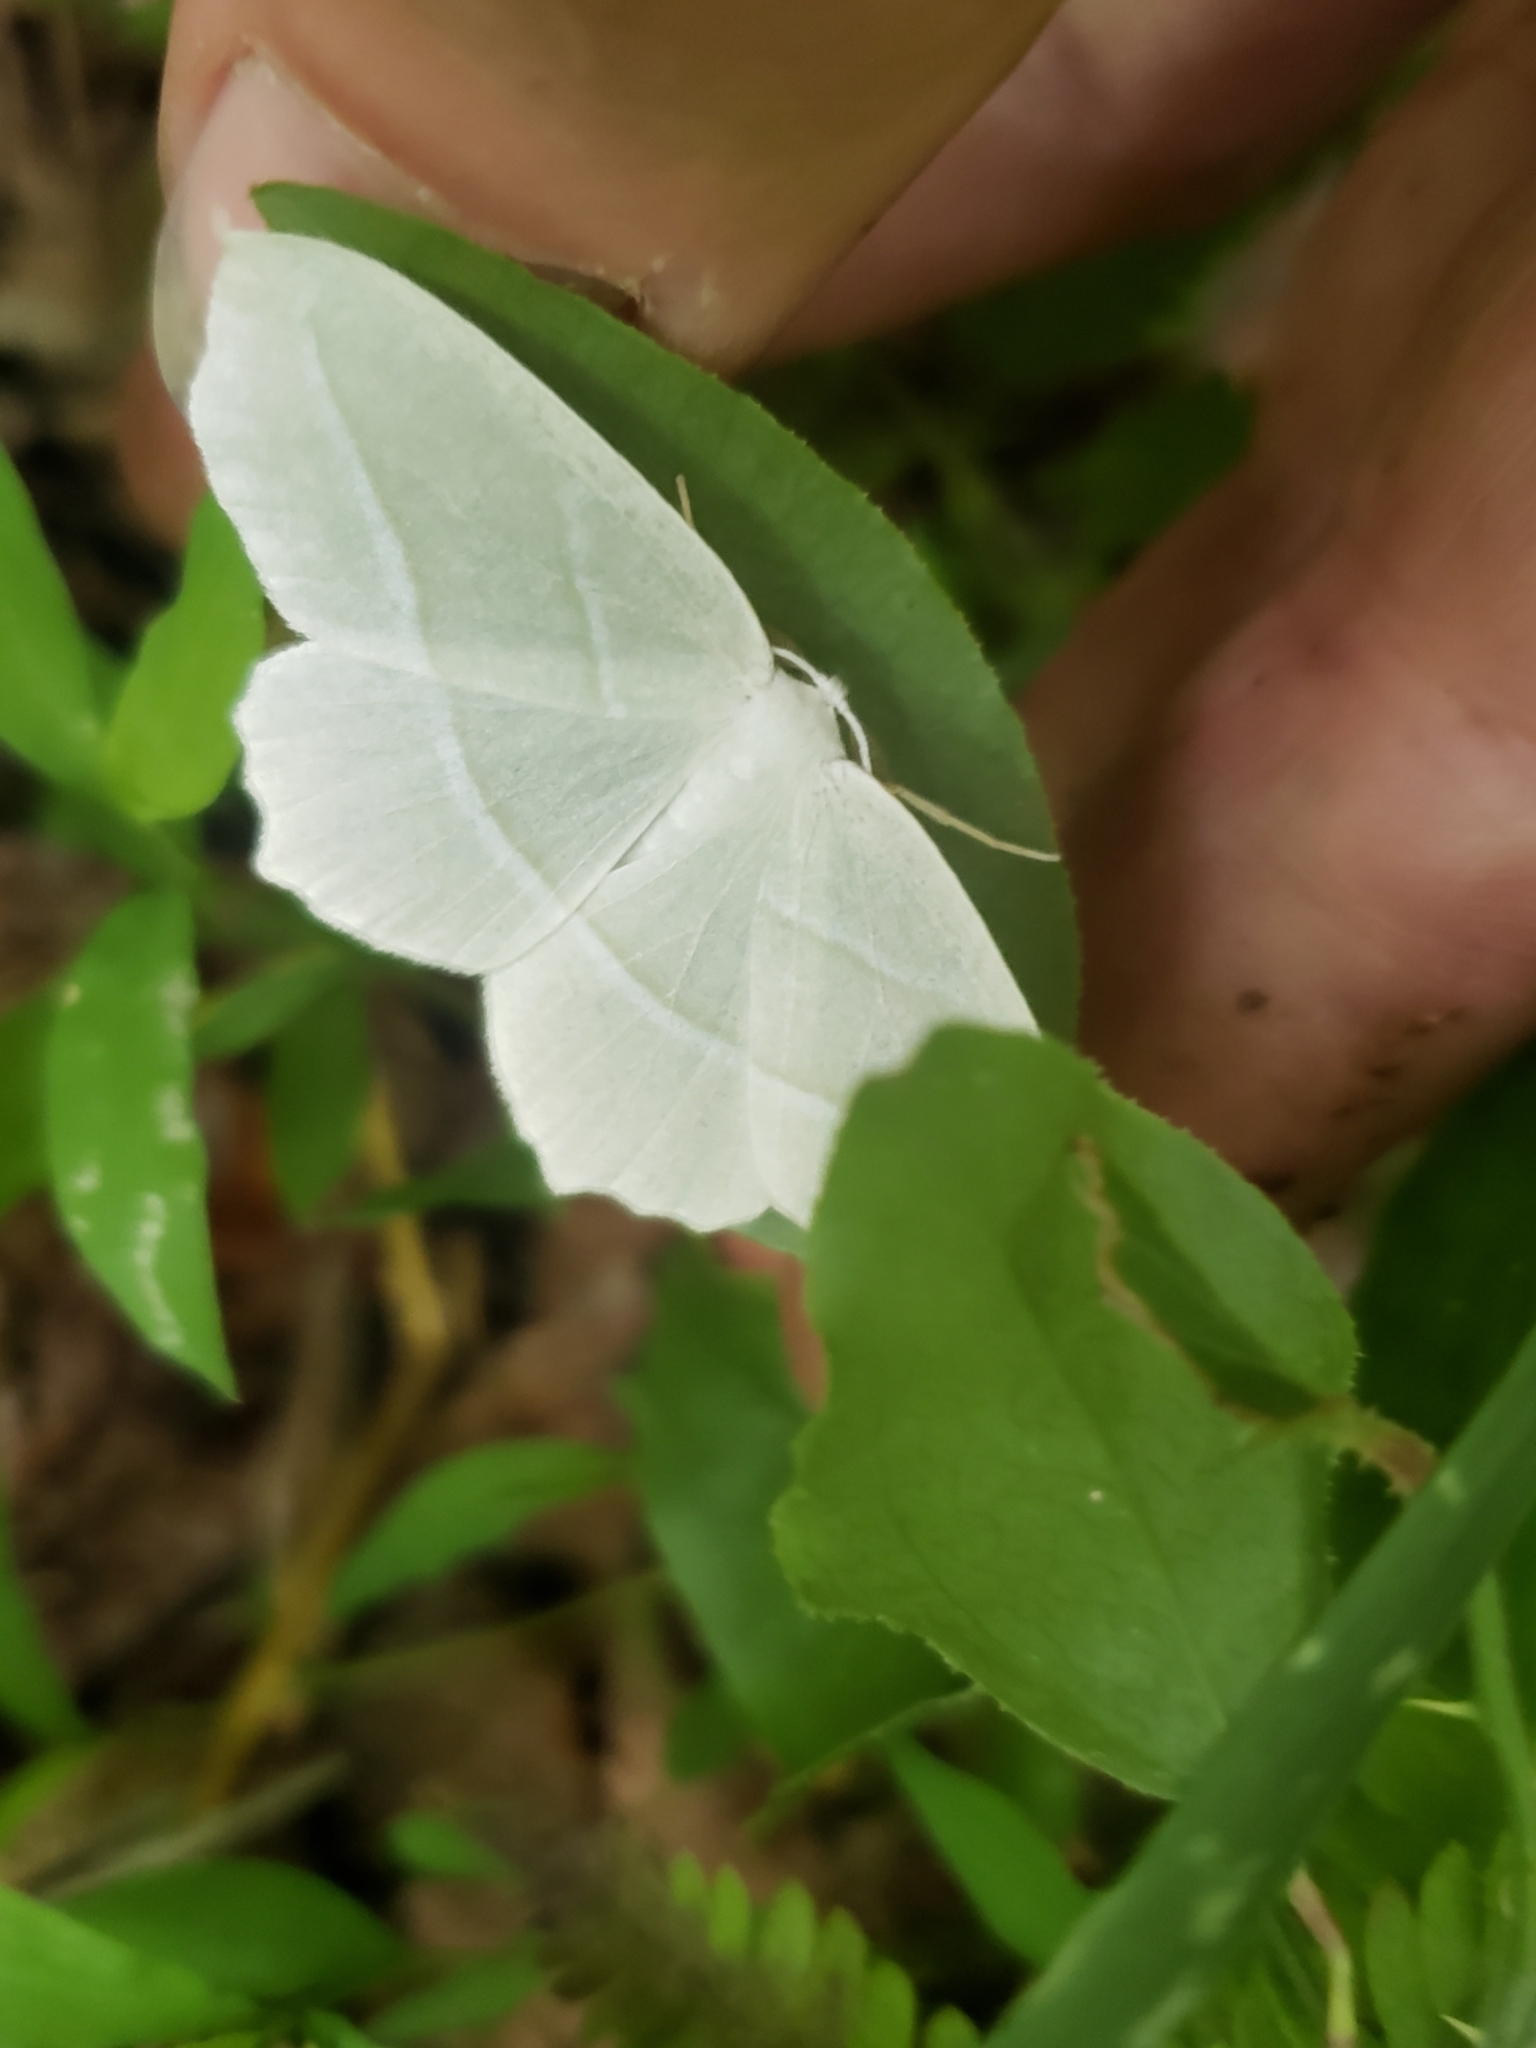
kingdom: Animalia
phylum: Arthropoda
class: Insecta
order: Lepidoptera
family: Geometridae
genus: Campaea
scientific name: Campaea perlata
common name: Fringed looper
